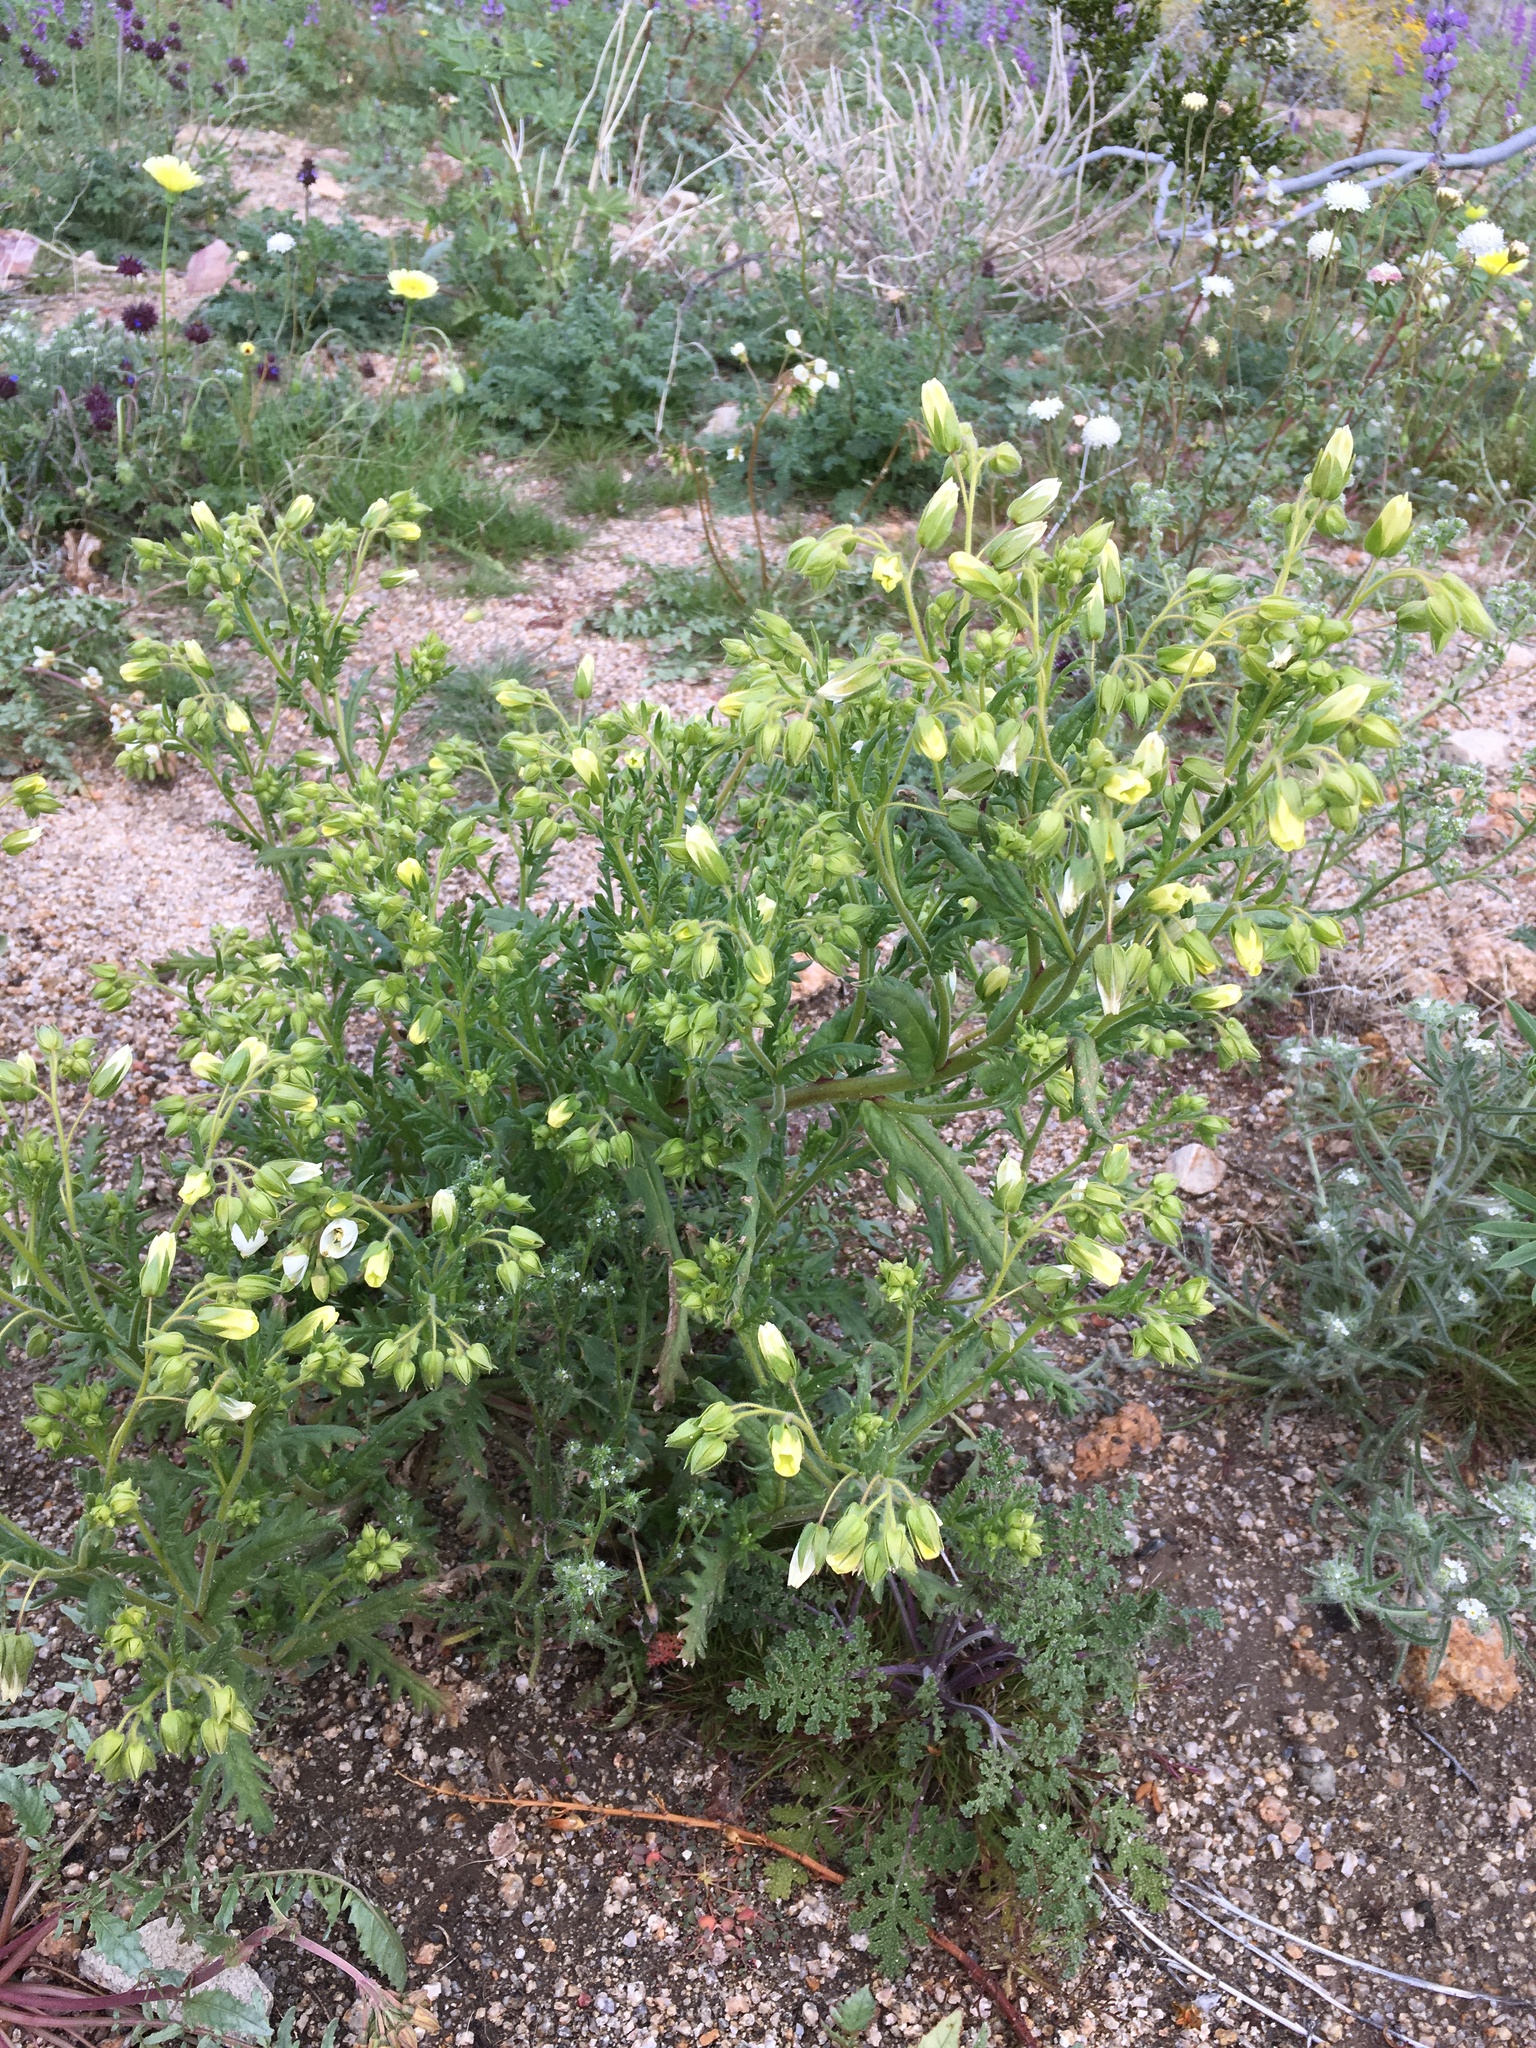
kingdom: Plantae
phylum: Tracheophyta
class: Magnoliopsida
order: Boraginales
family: Hydrophyllaceae
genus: Emmenanthe
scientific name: Emmenanthe penduliflora
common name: Whispering-bells
